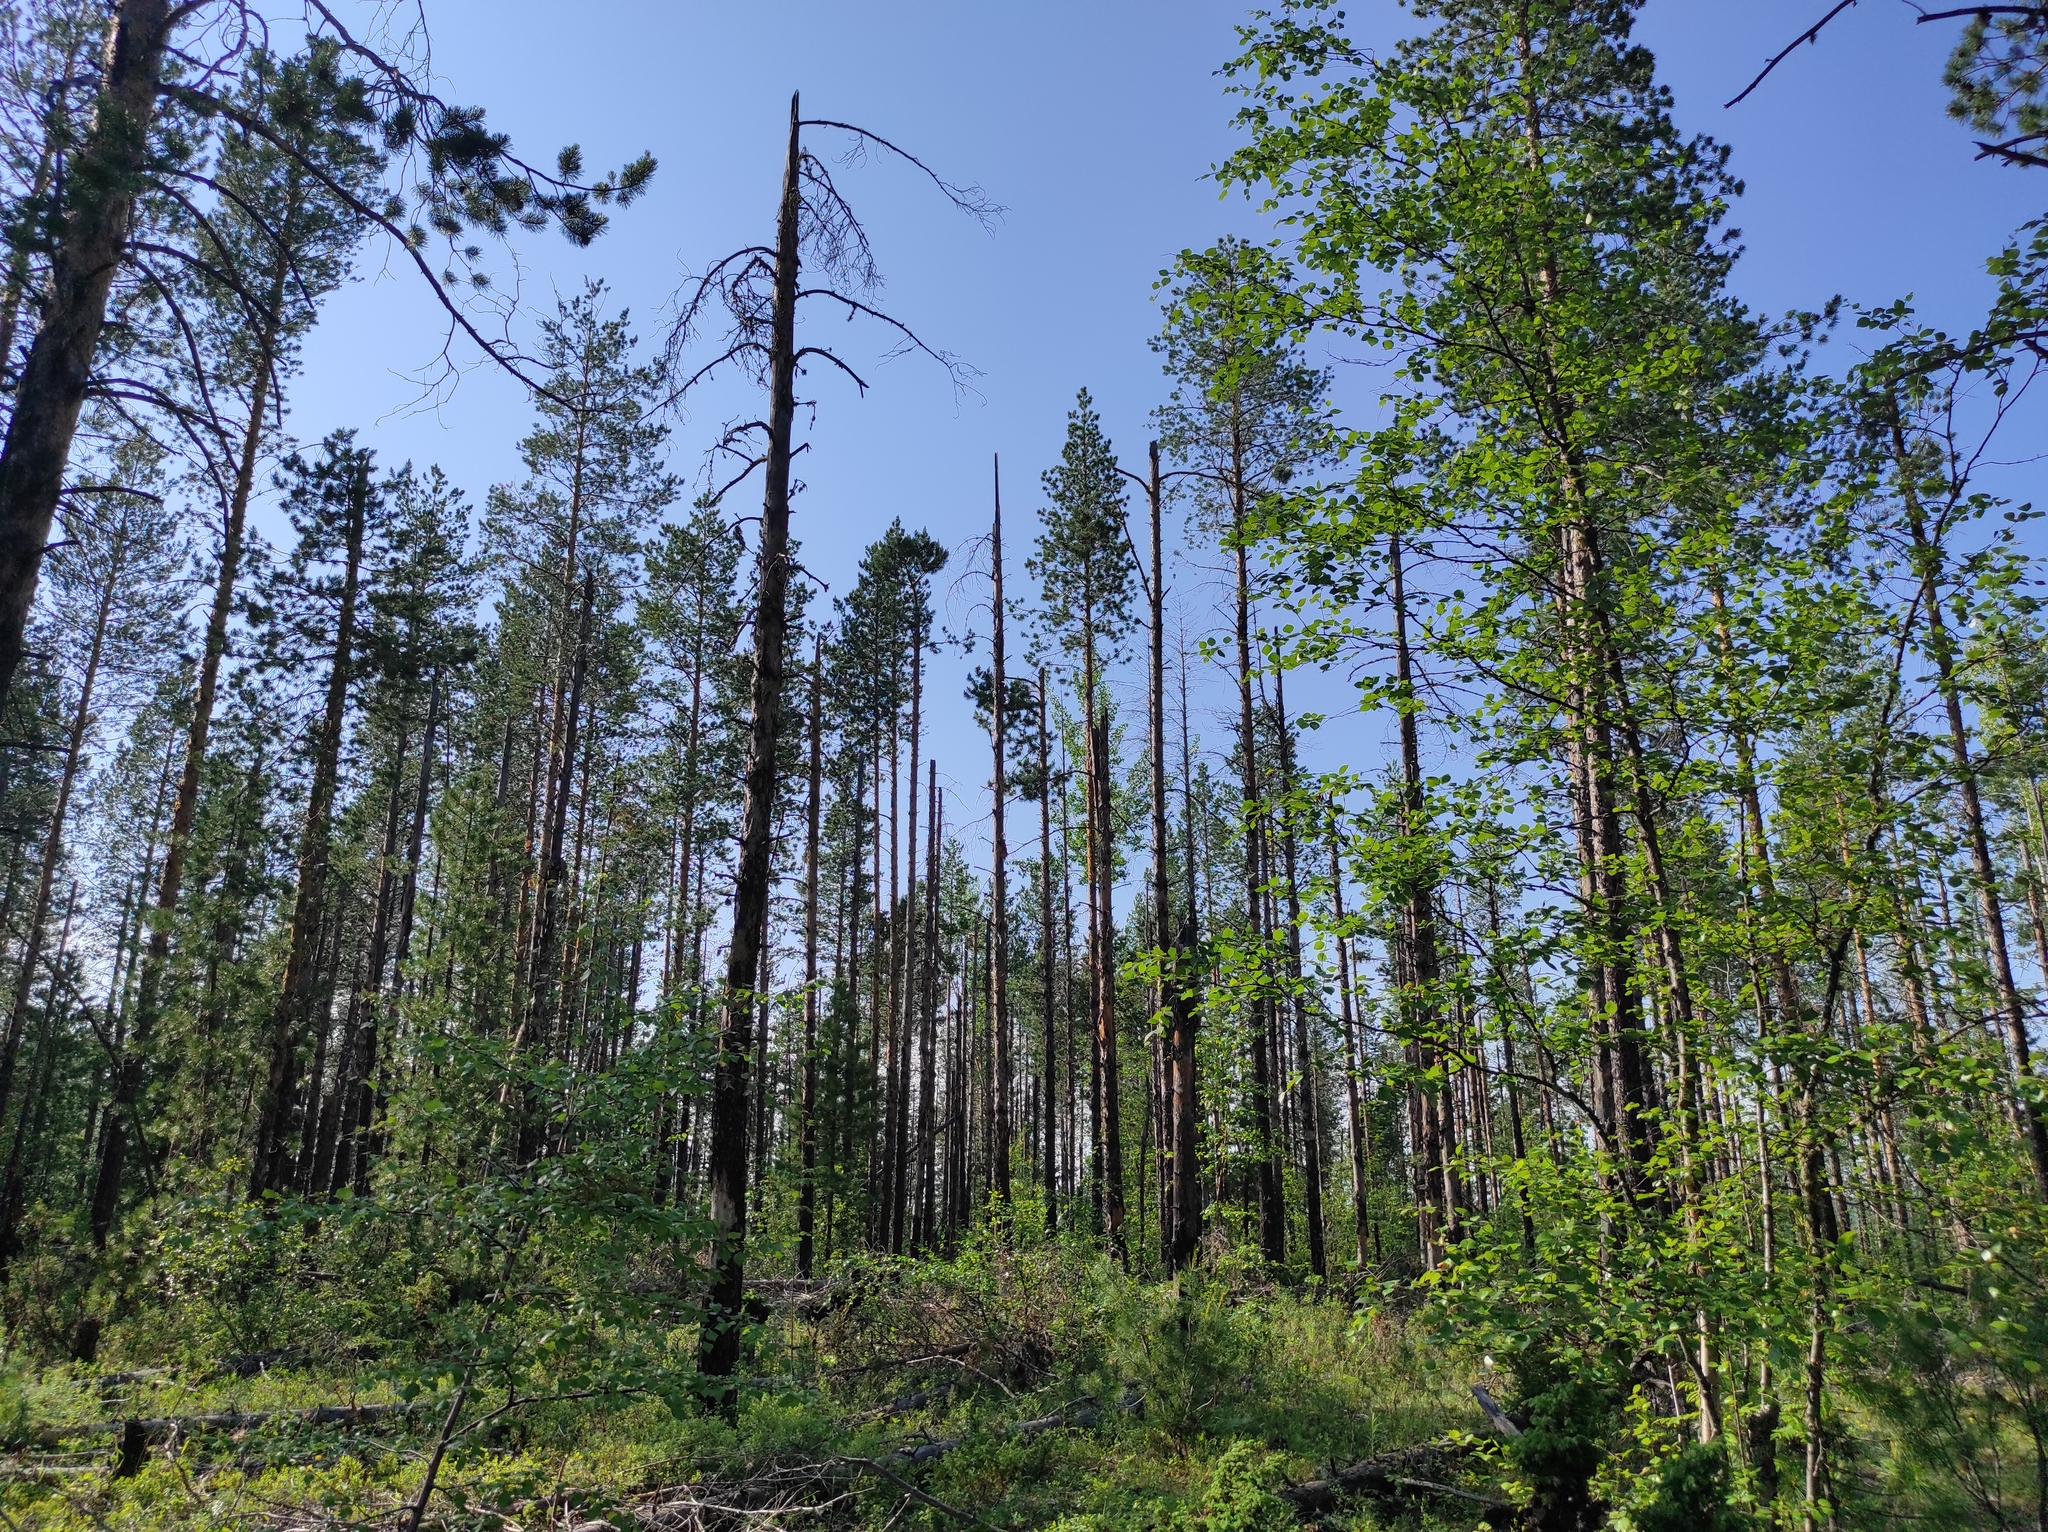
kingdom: Plantae
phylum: Tracheophyta
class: Pinopsida
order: Pinales
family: Pinaceae
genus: Pinus
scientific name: Pinus sylvestris
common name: Scots pine
